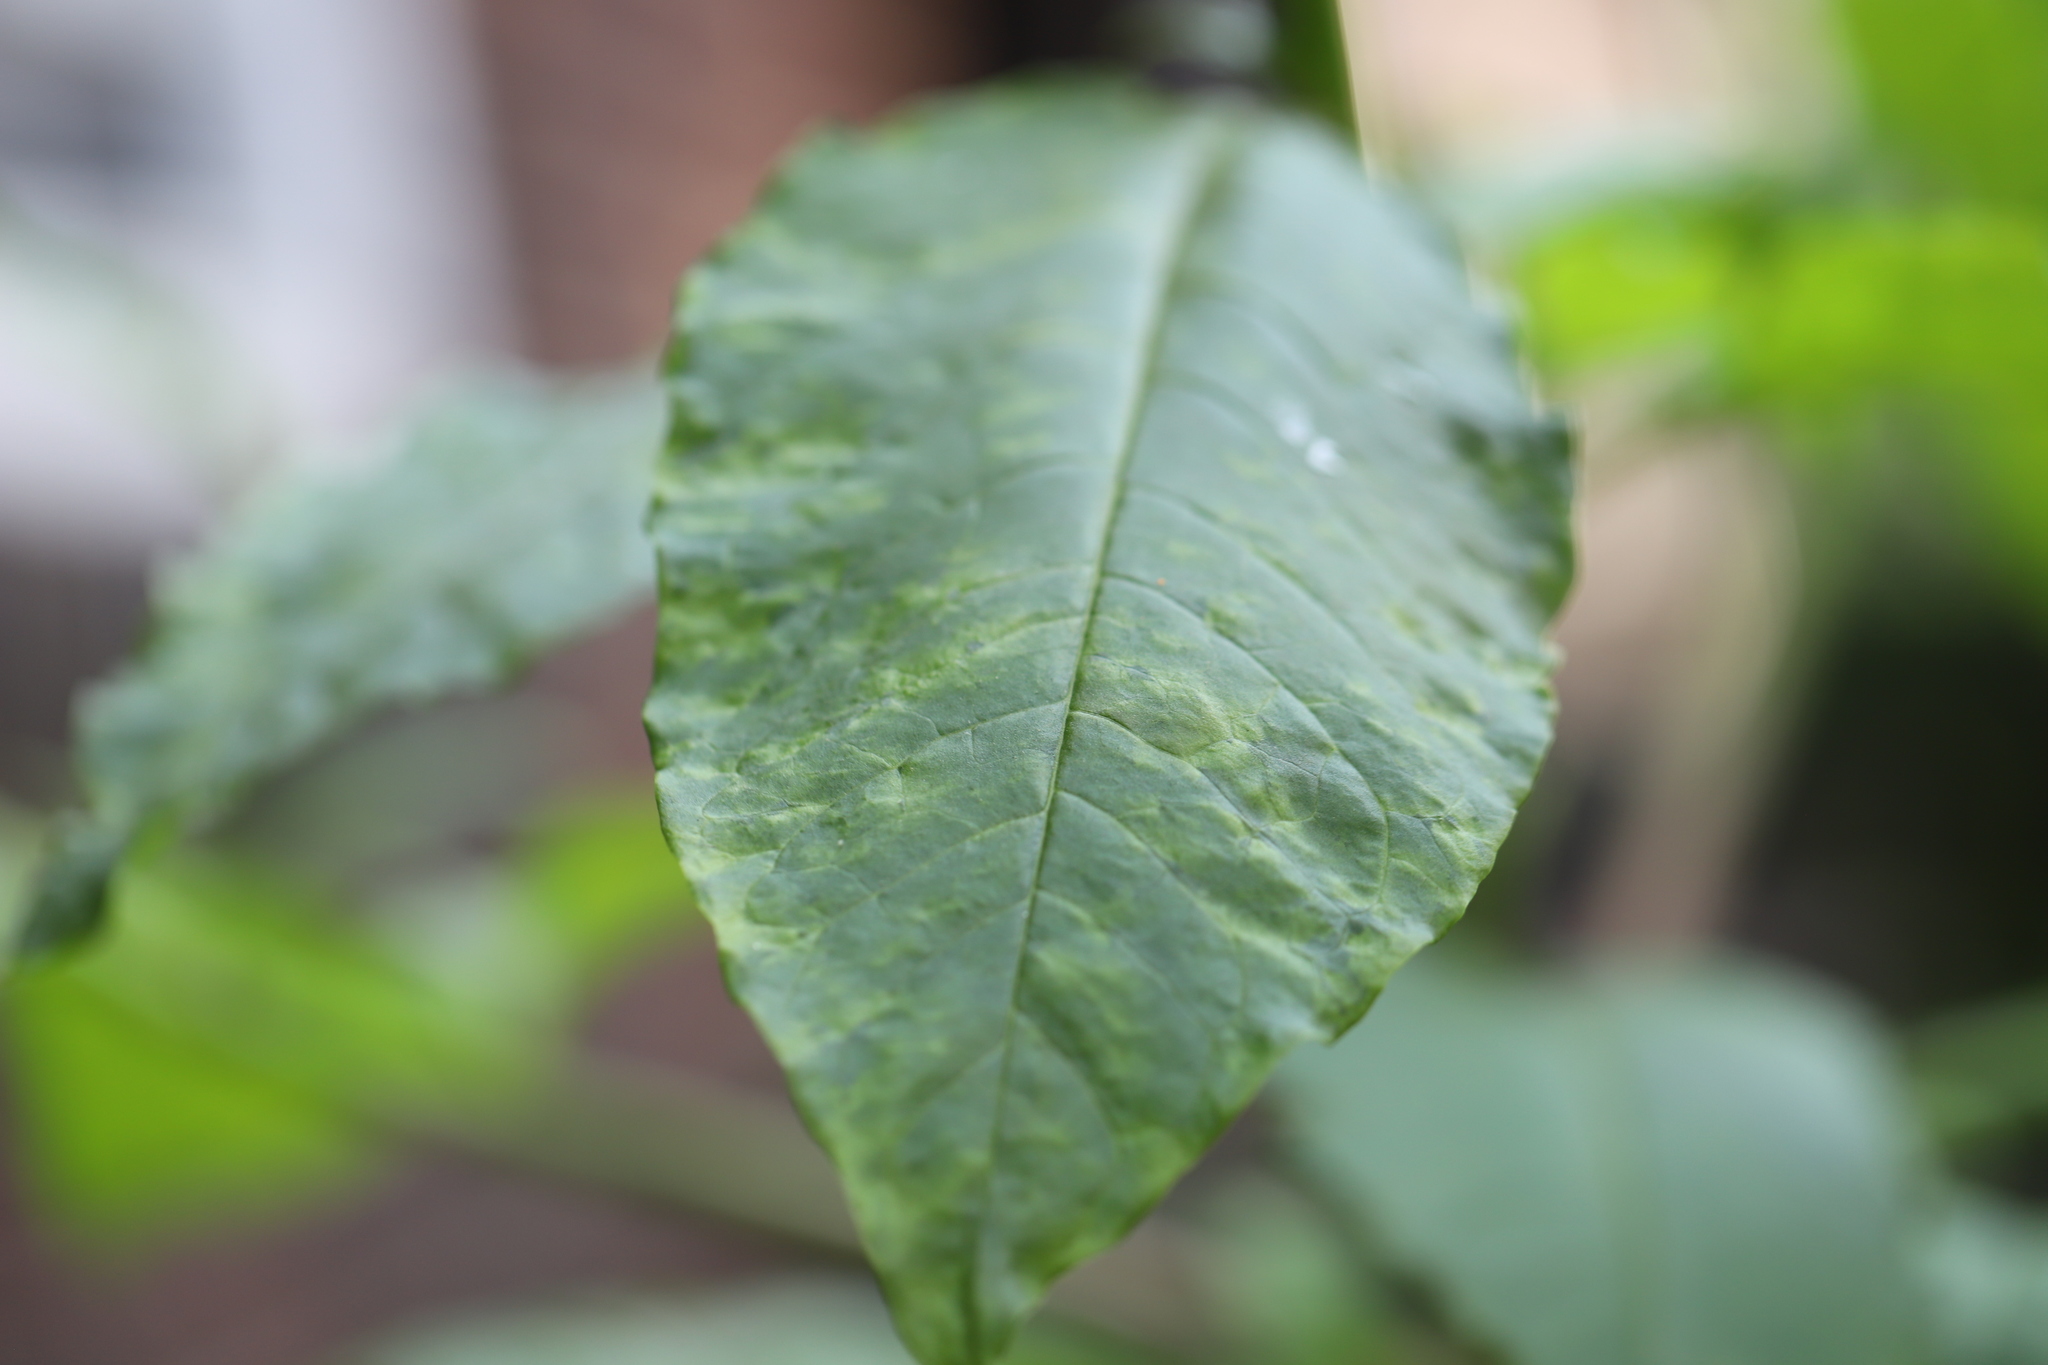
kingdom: Plantae
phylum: Tracheophyta
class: Magnoliopsida
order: Caryophyllales
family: Phytolaccaceae
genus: Phytolacca
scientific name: Phytolacca americana
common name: American pokeweed
